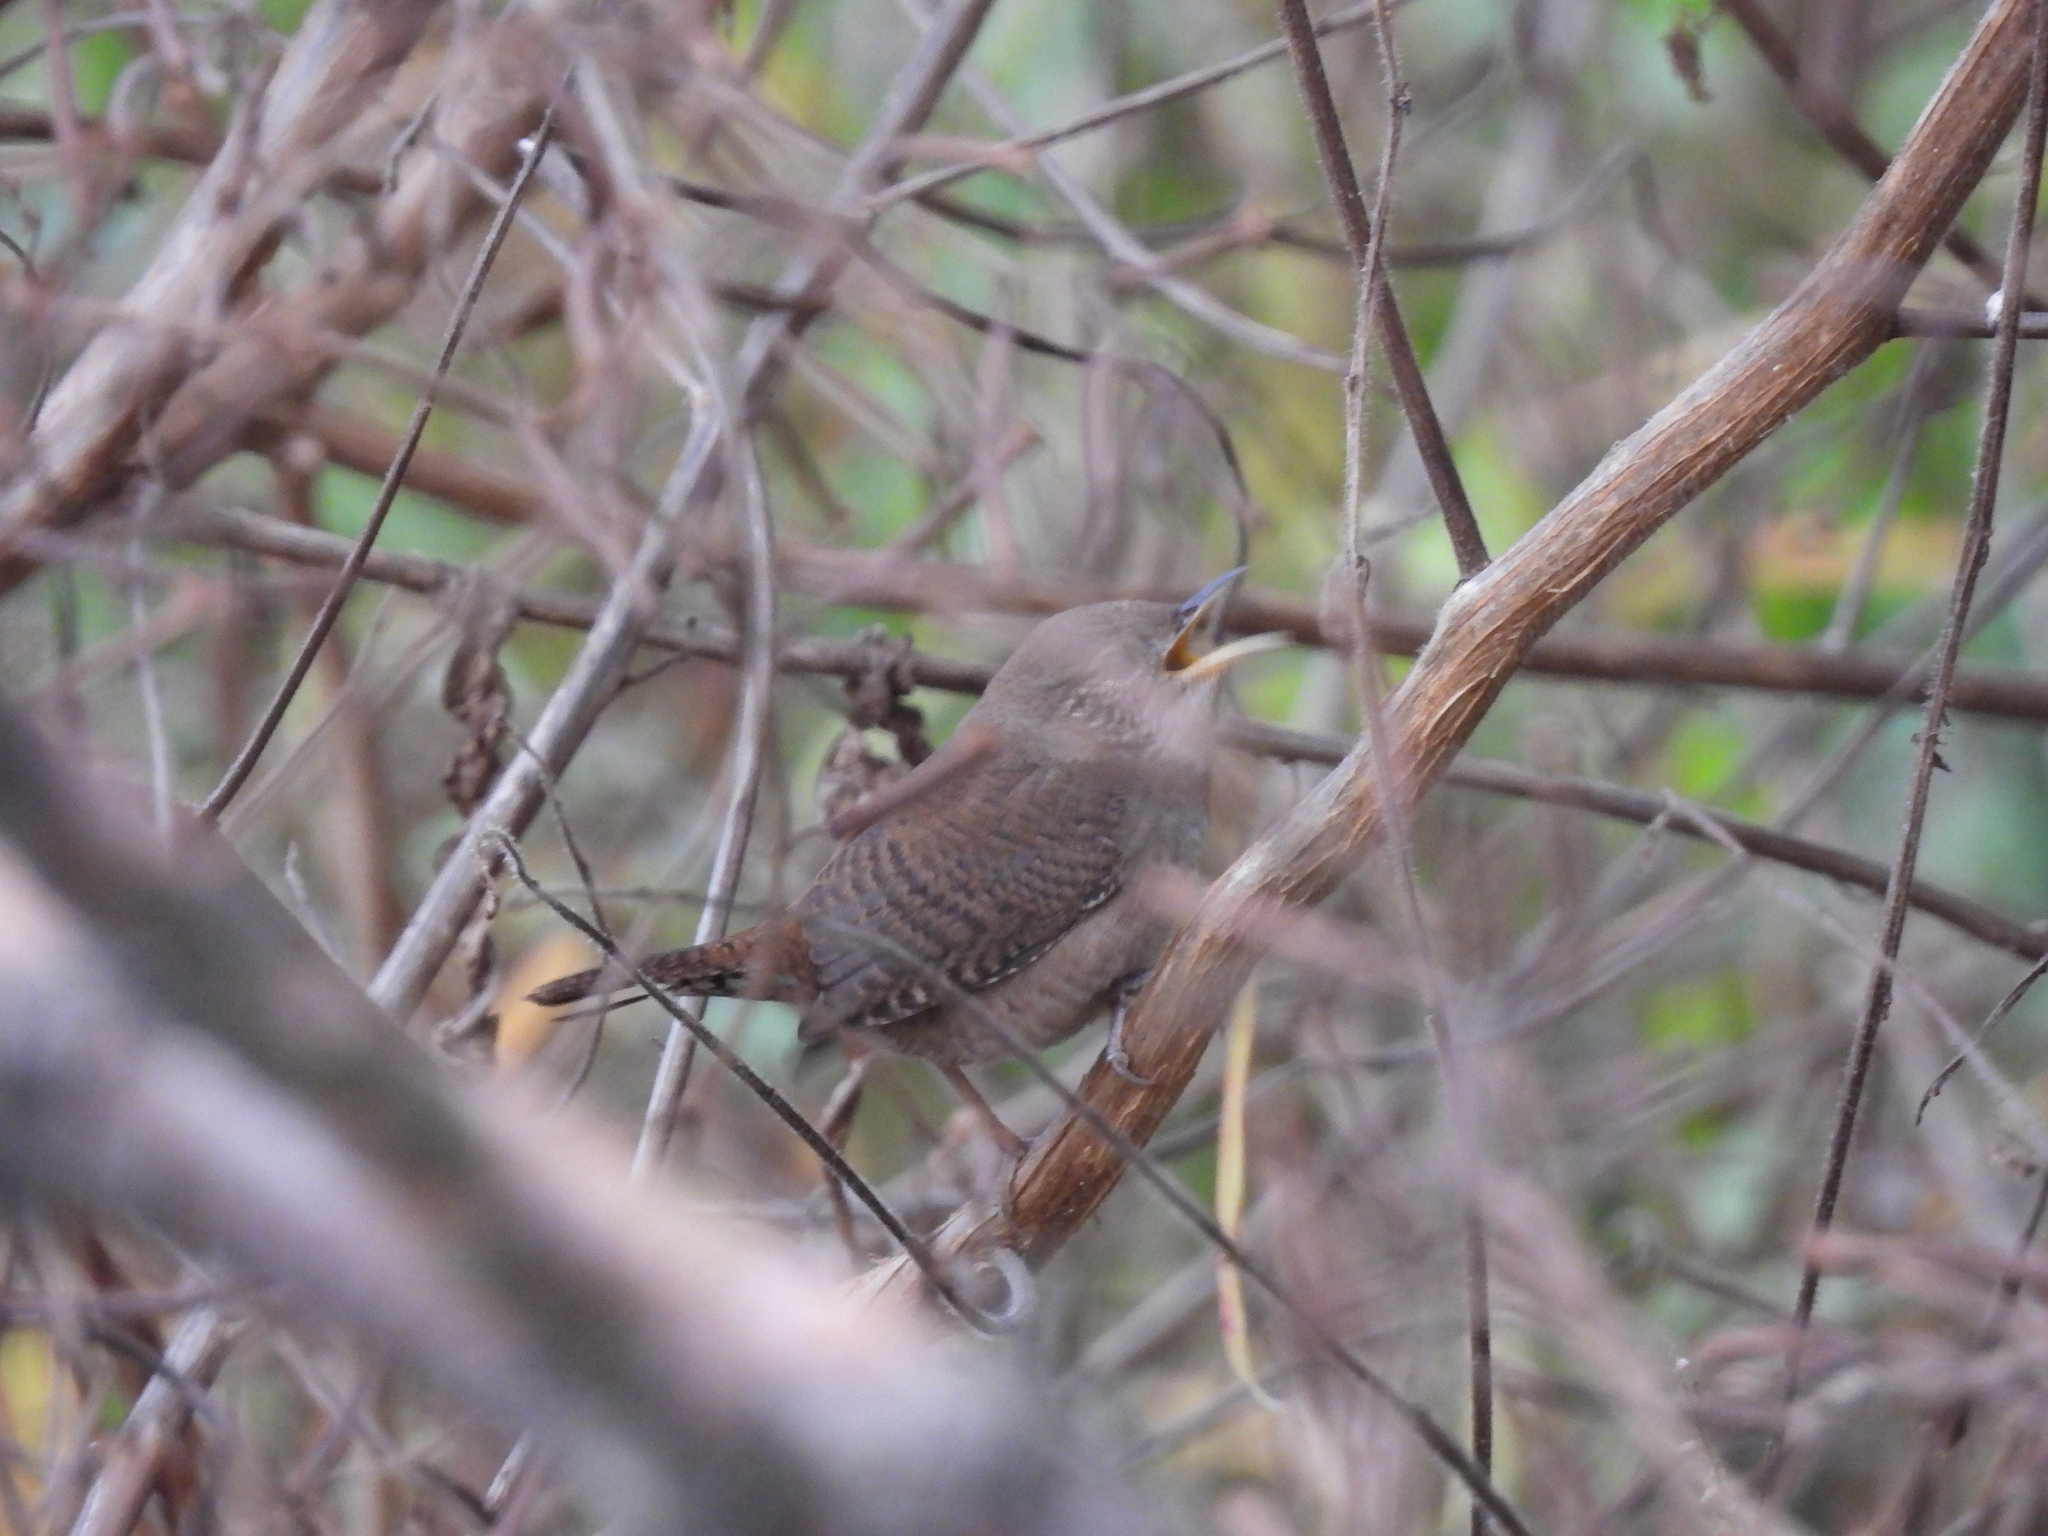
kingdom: Animalia
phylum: Chordata
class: Aves
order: Passeriformes
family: Troglodytidae
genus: Troglodytes
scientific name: Troglodytes aedon
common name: House wren
